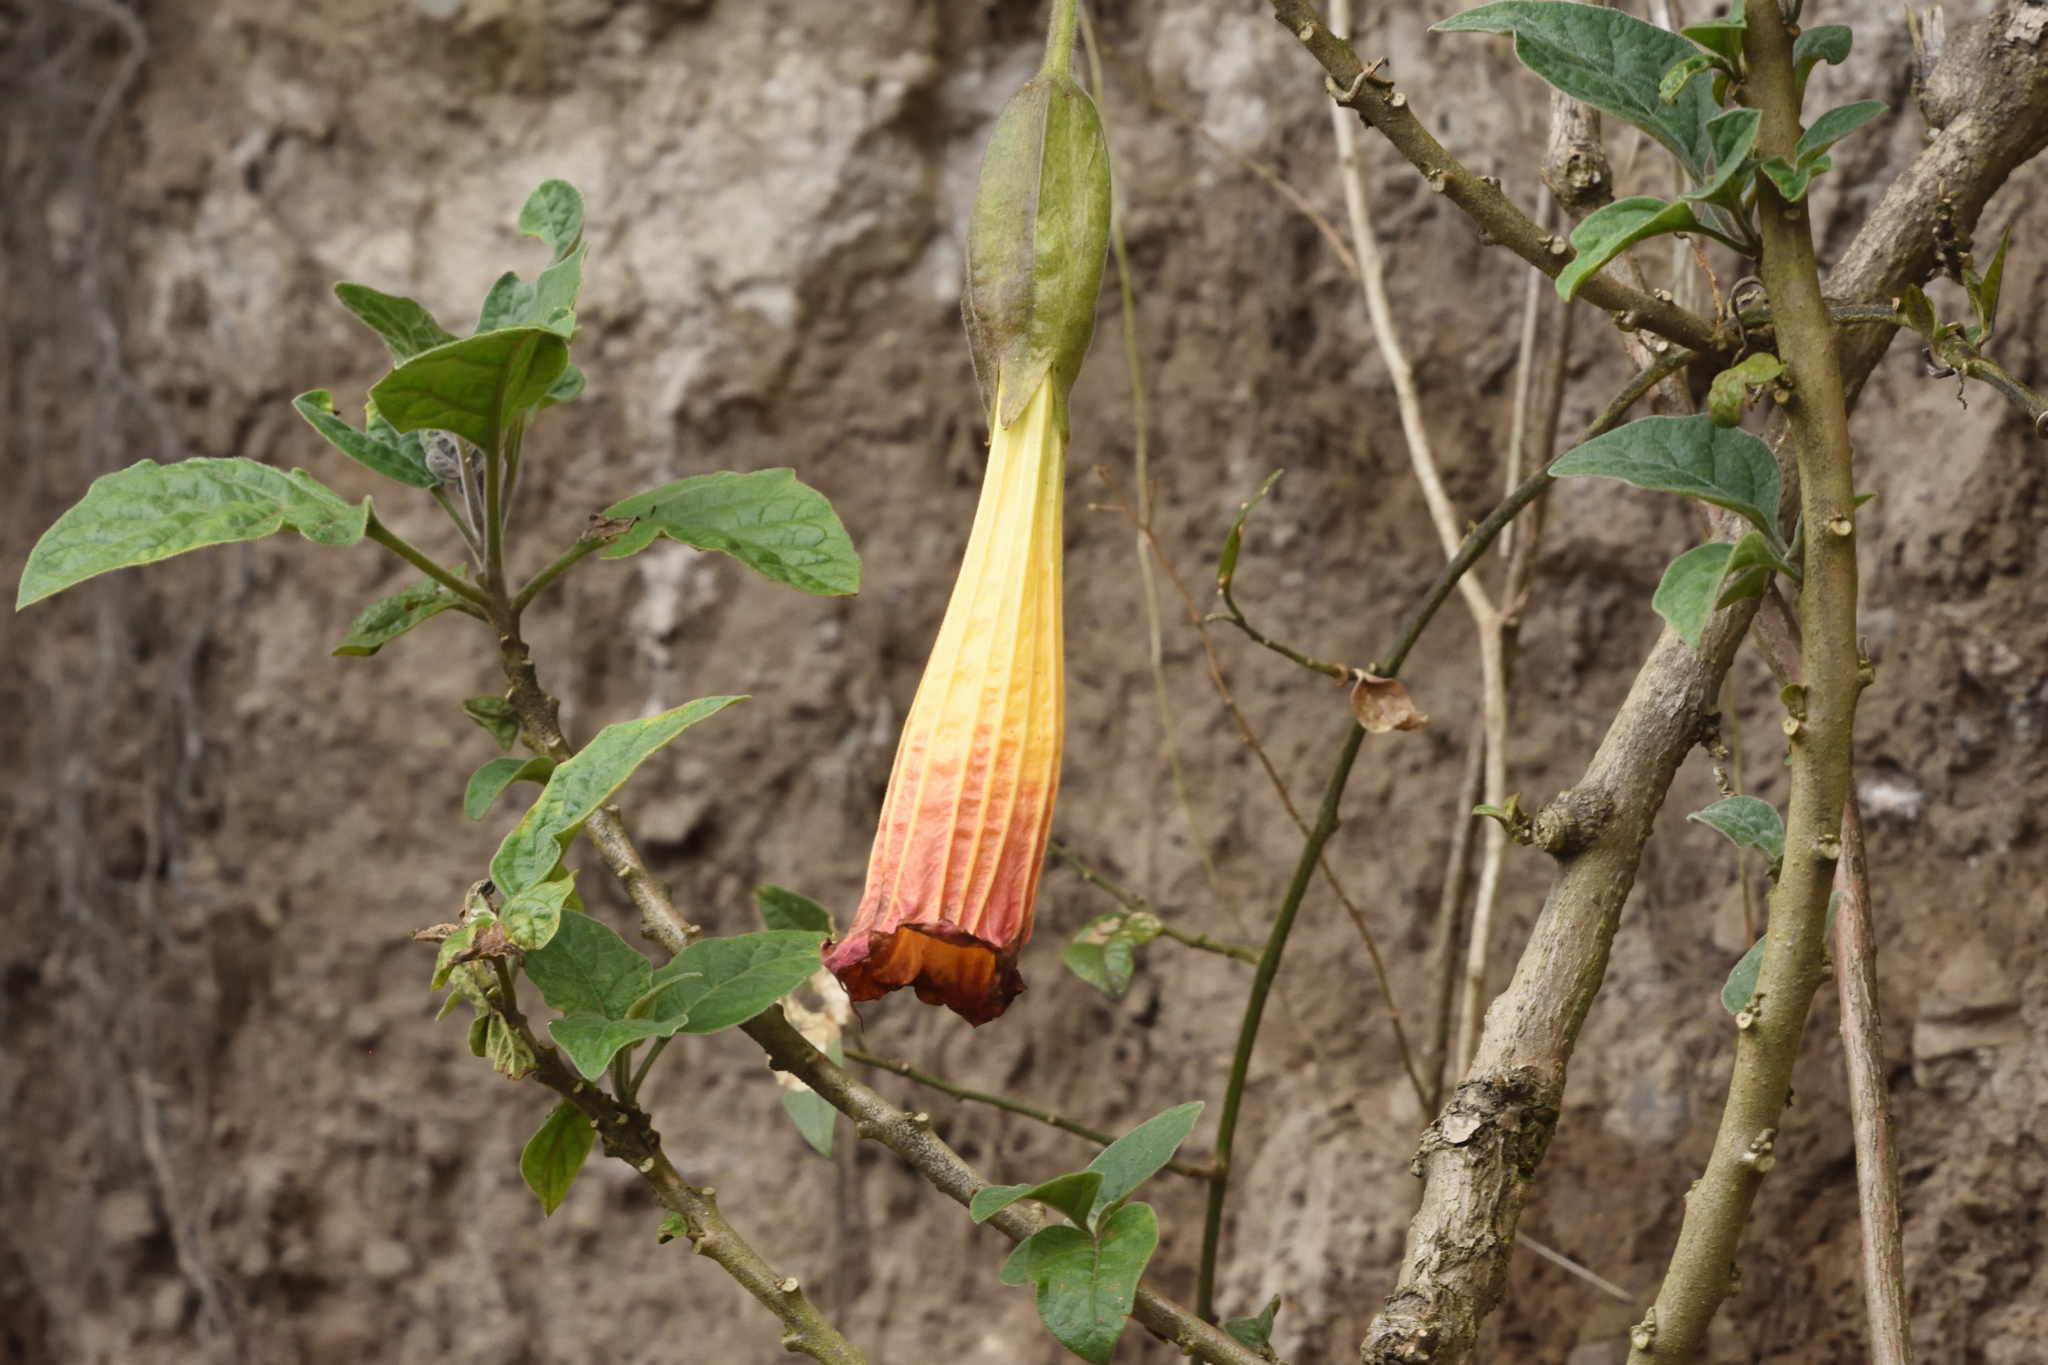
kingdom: Plantae
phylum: Tracheophyta
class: Magnoliopsida
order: Solanales
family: Solanaceae
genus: Brugmansia
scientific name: Brugmansia sanguinea
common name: Red floripontio
